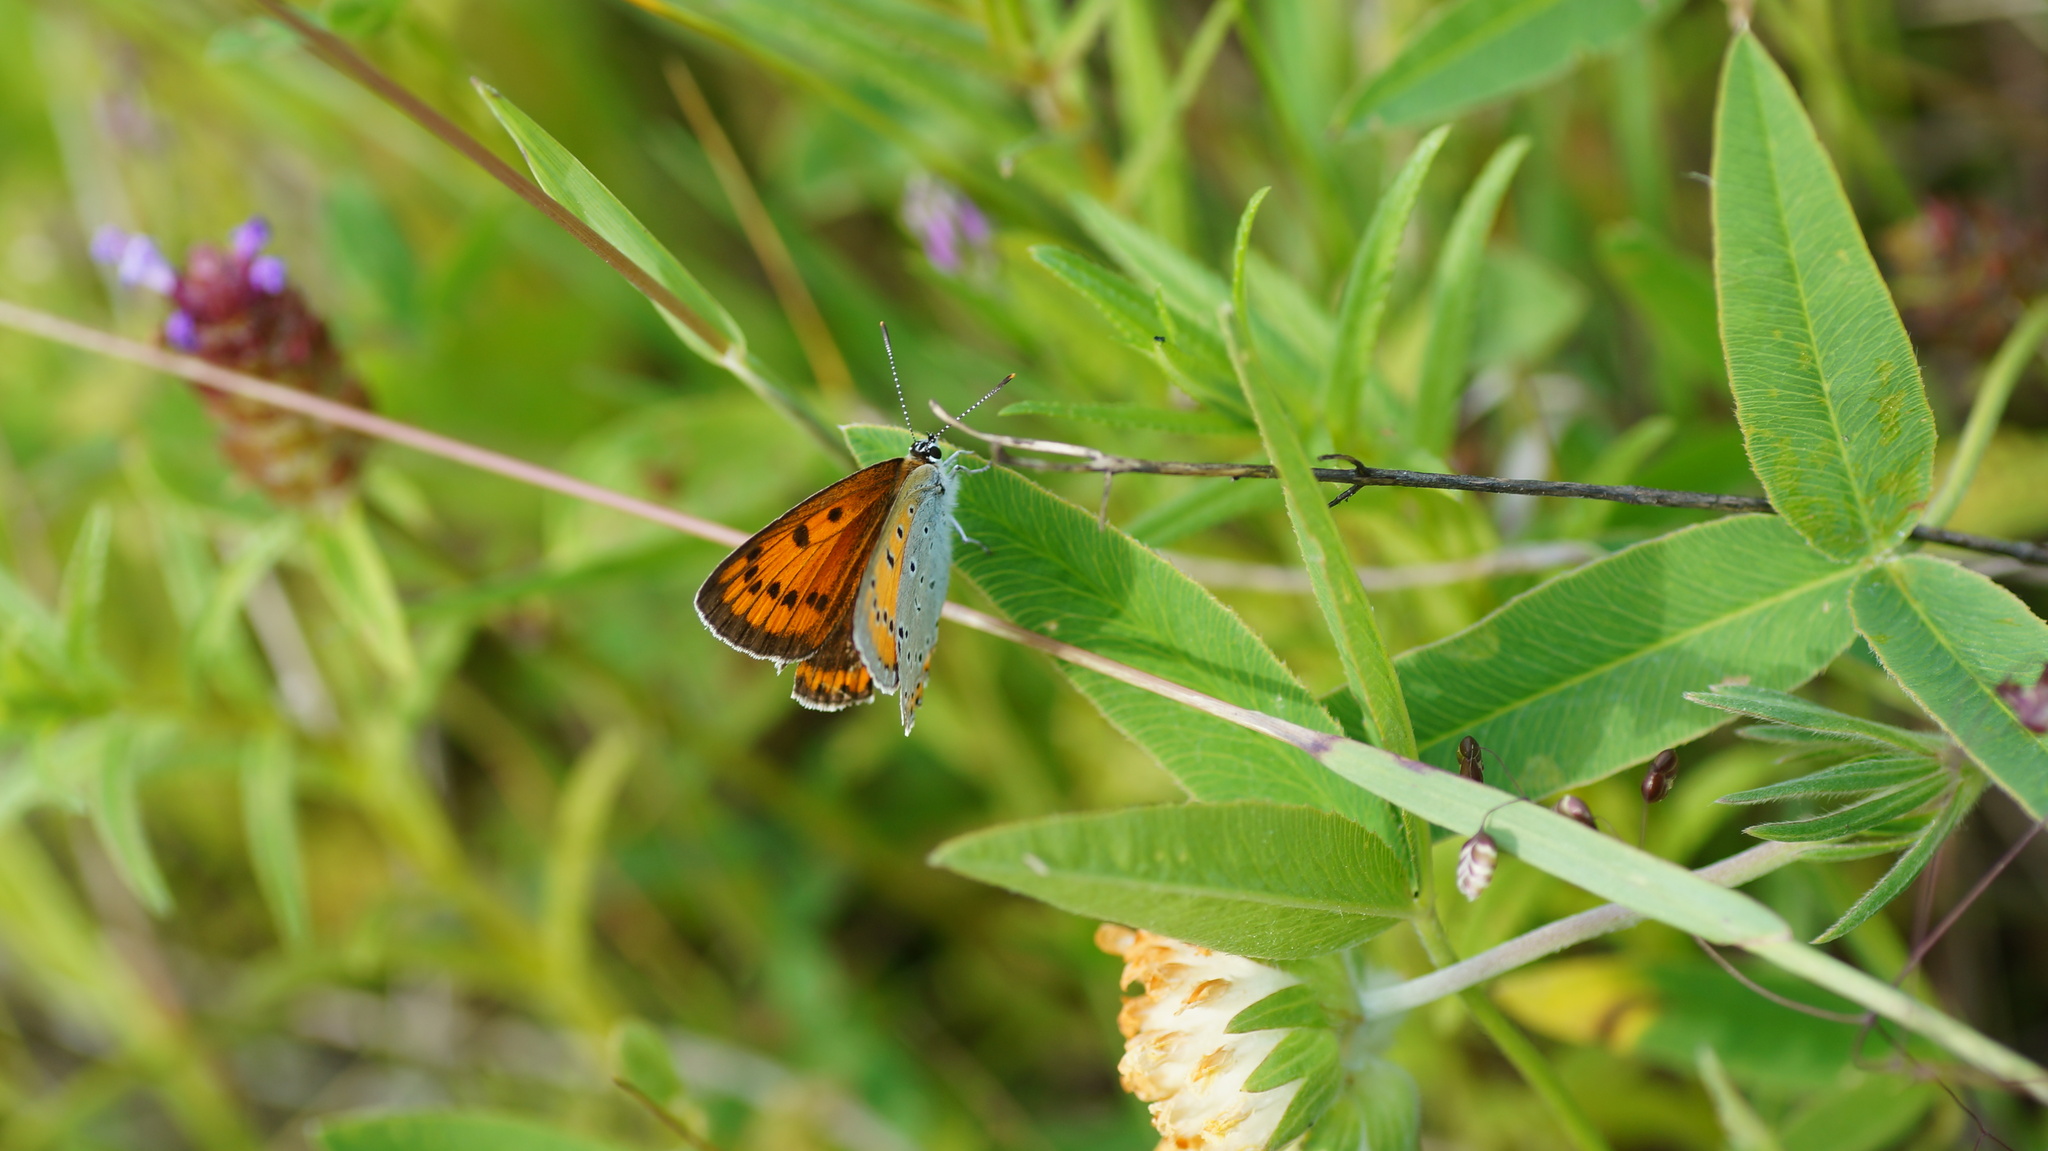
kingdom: Animalia
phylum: Arthropoda
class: Insecta
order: Lepidoptera
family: Lycaenidae
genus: Lycaena
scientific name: Lycaena dispar
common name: Large copper
